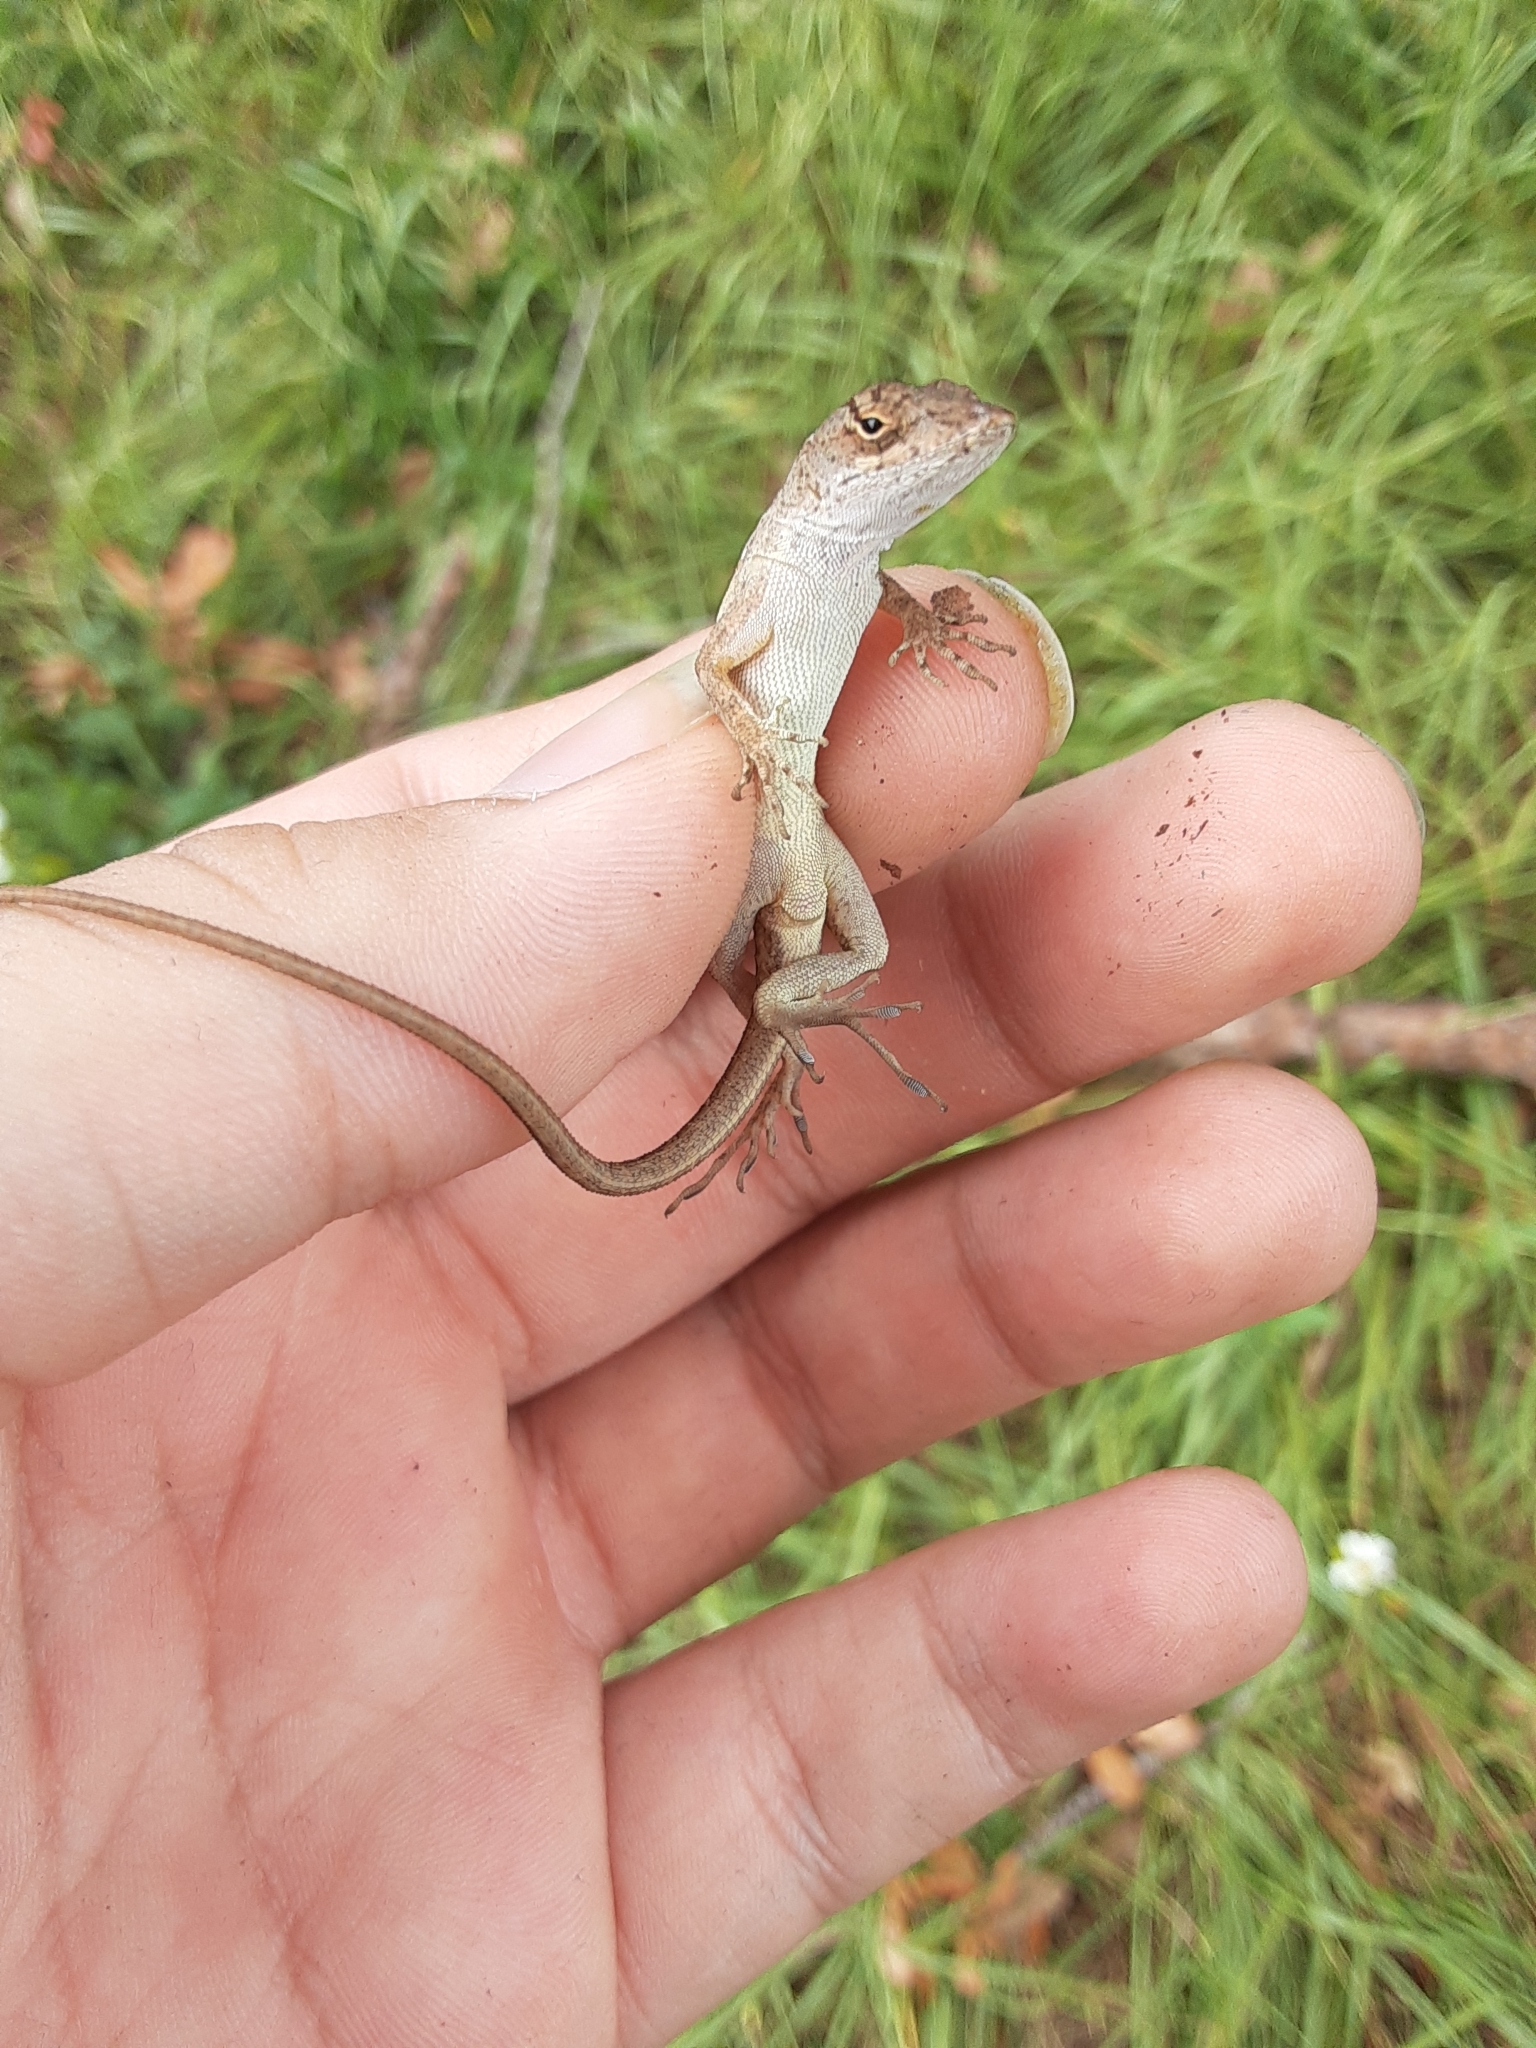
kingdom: Animalia
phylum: Chordata
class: Squamata
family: Dactyloidae
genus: Anolis
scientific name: Anolis sagrei
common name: Brown anole
